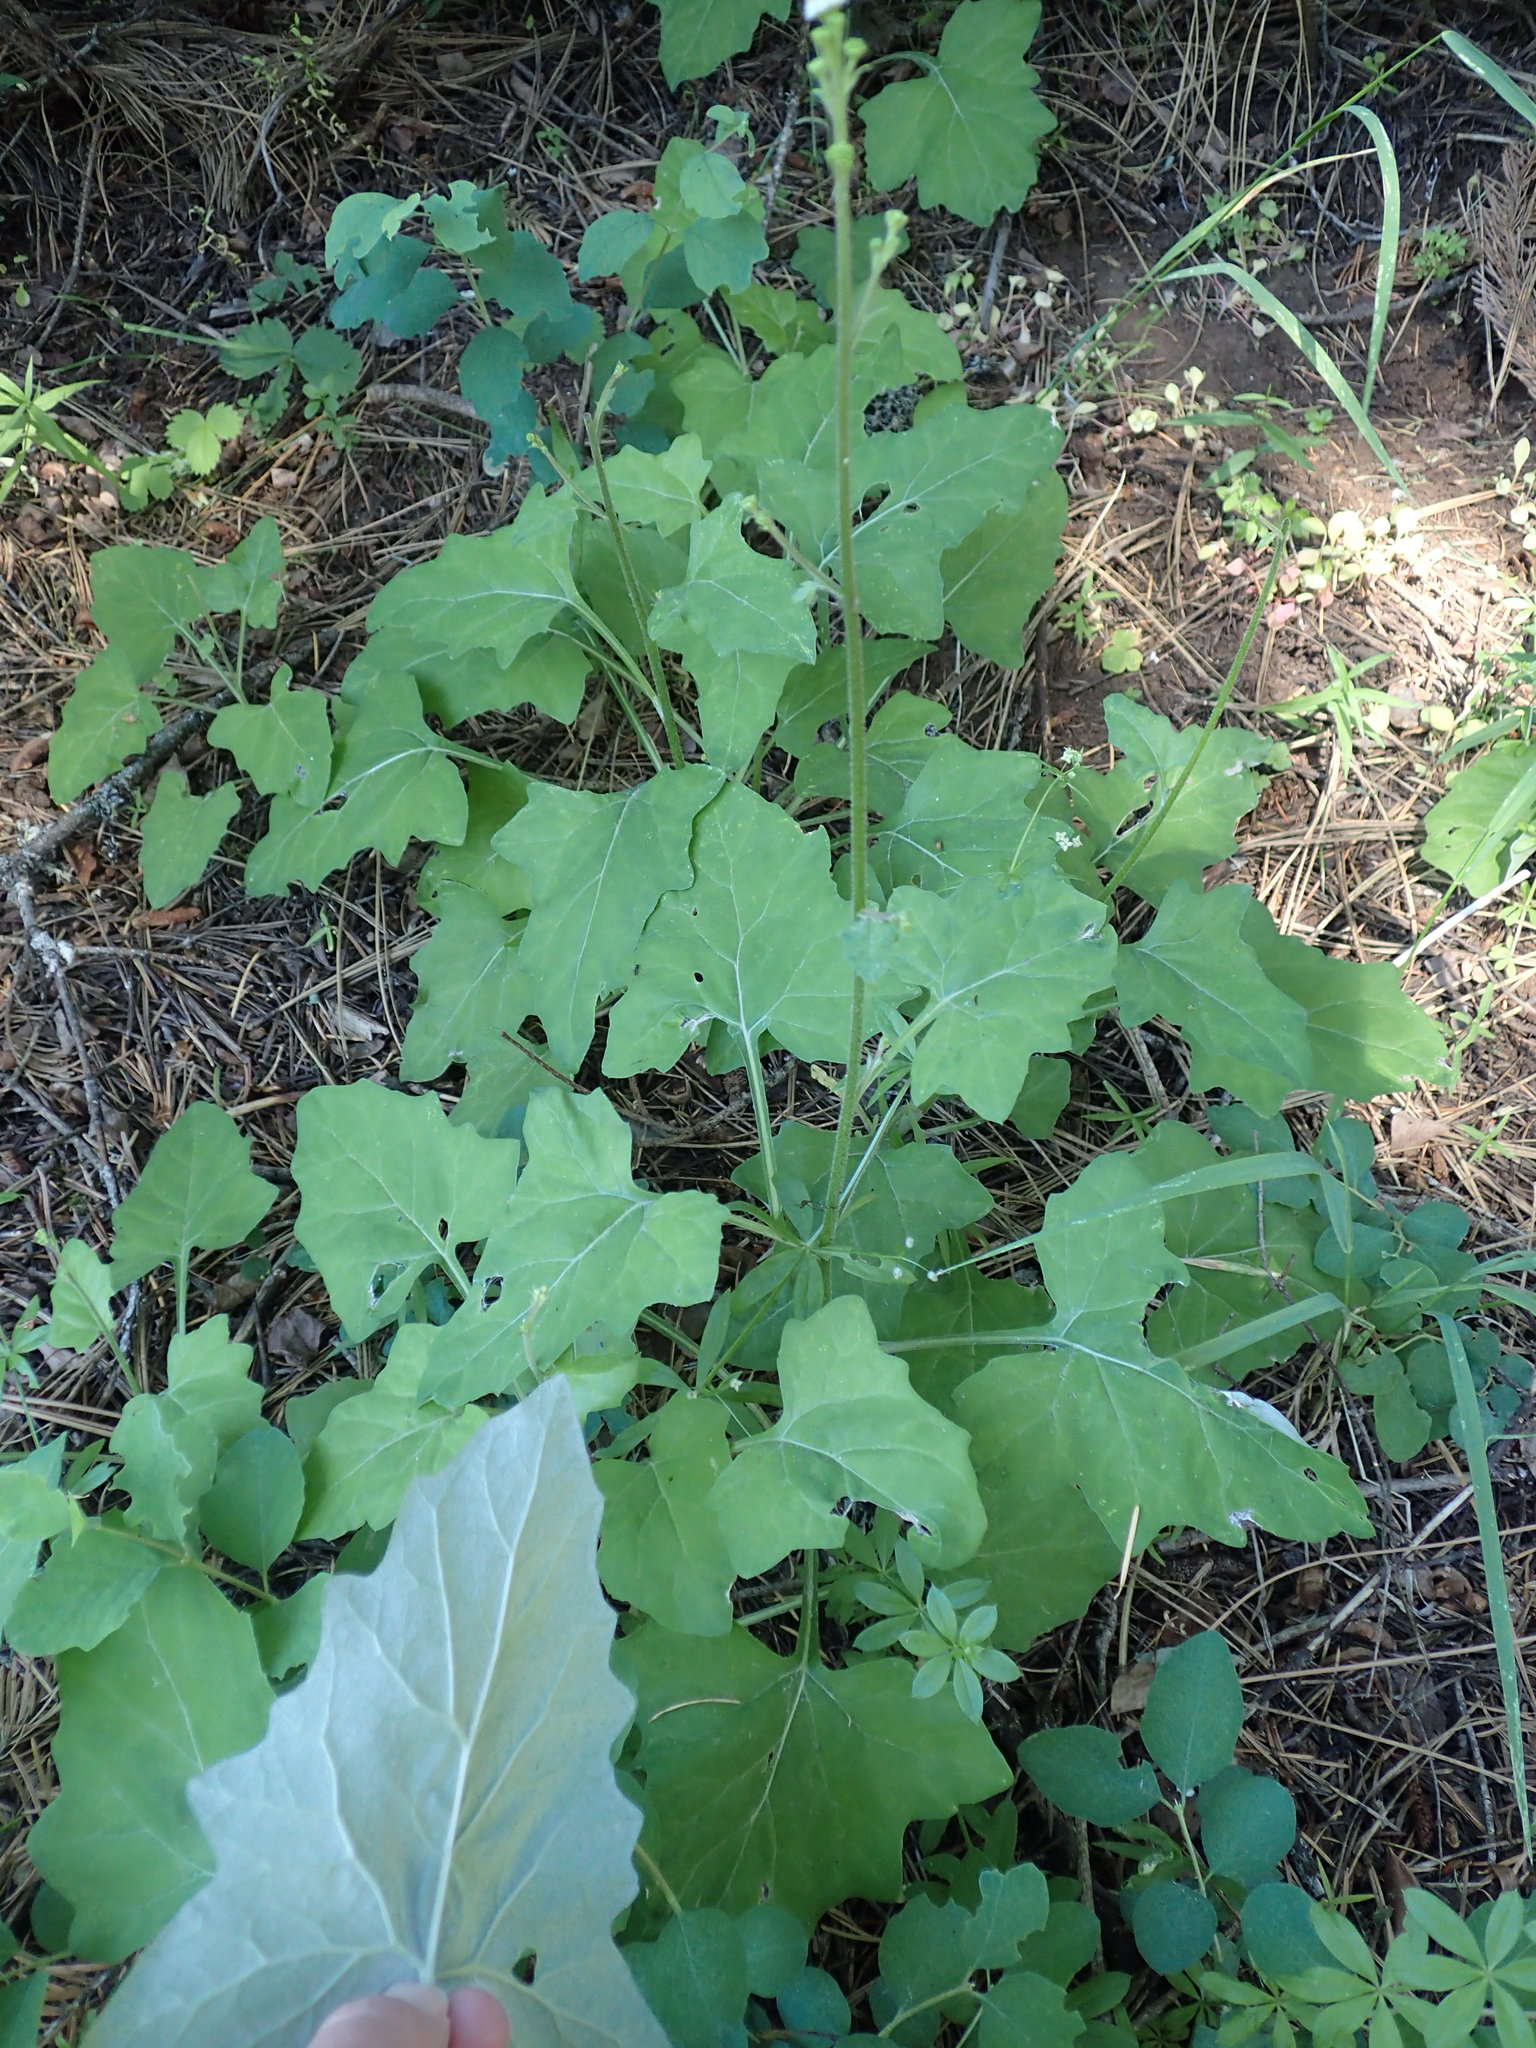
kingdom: Plantae
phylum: Tracheophyta
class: Magnoliopsida
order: Asterales
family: Asteraceae
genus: Adenocaulon
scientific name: Adenocaulon bicolor
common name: Trailplant
